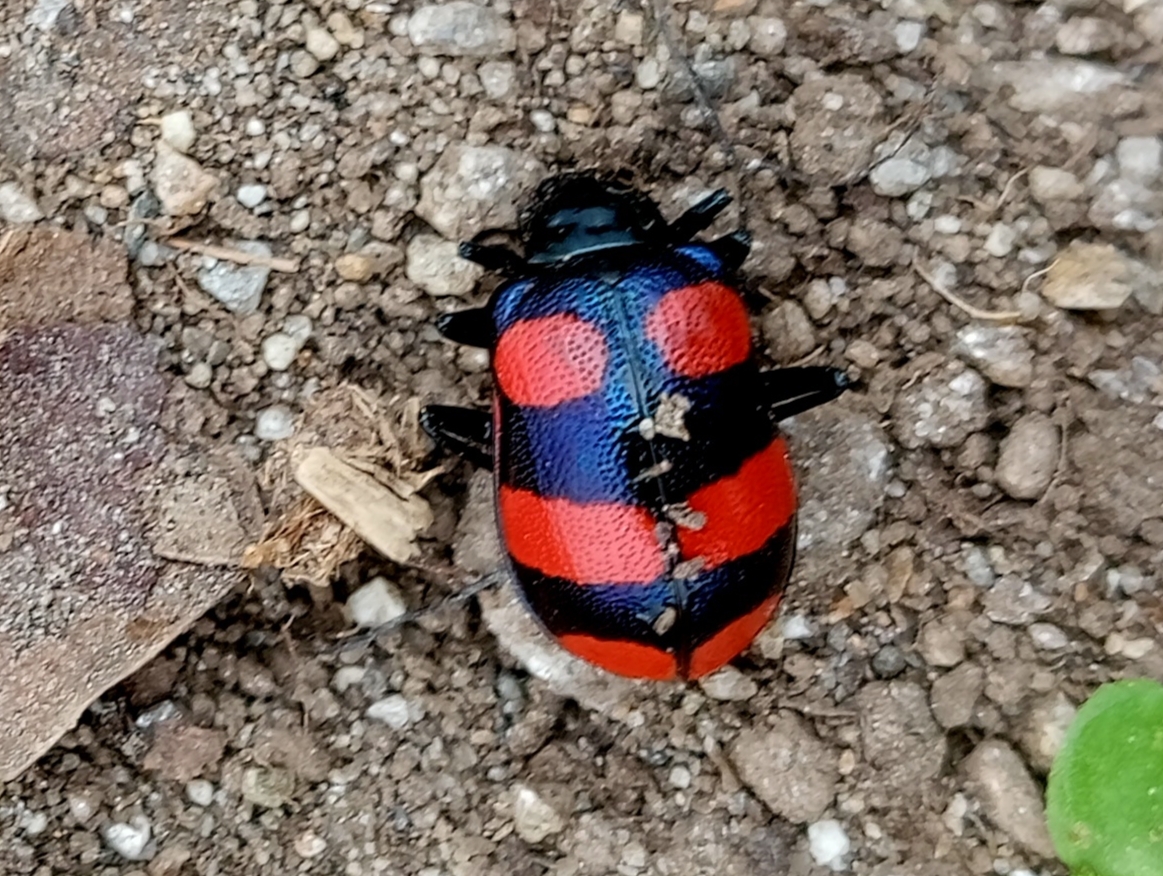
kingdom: Animalia
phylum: Arthropoda
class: Insecta
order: Coleoptera
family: Chrysomelidae
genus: Meristata
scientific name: Meristata
